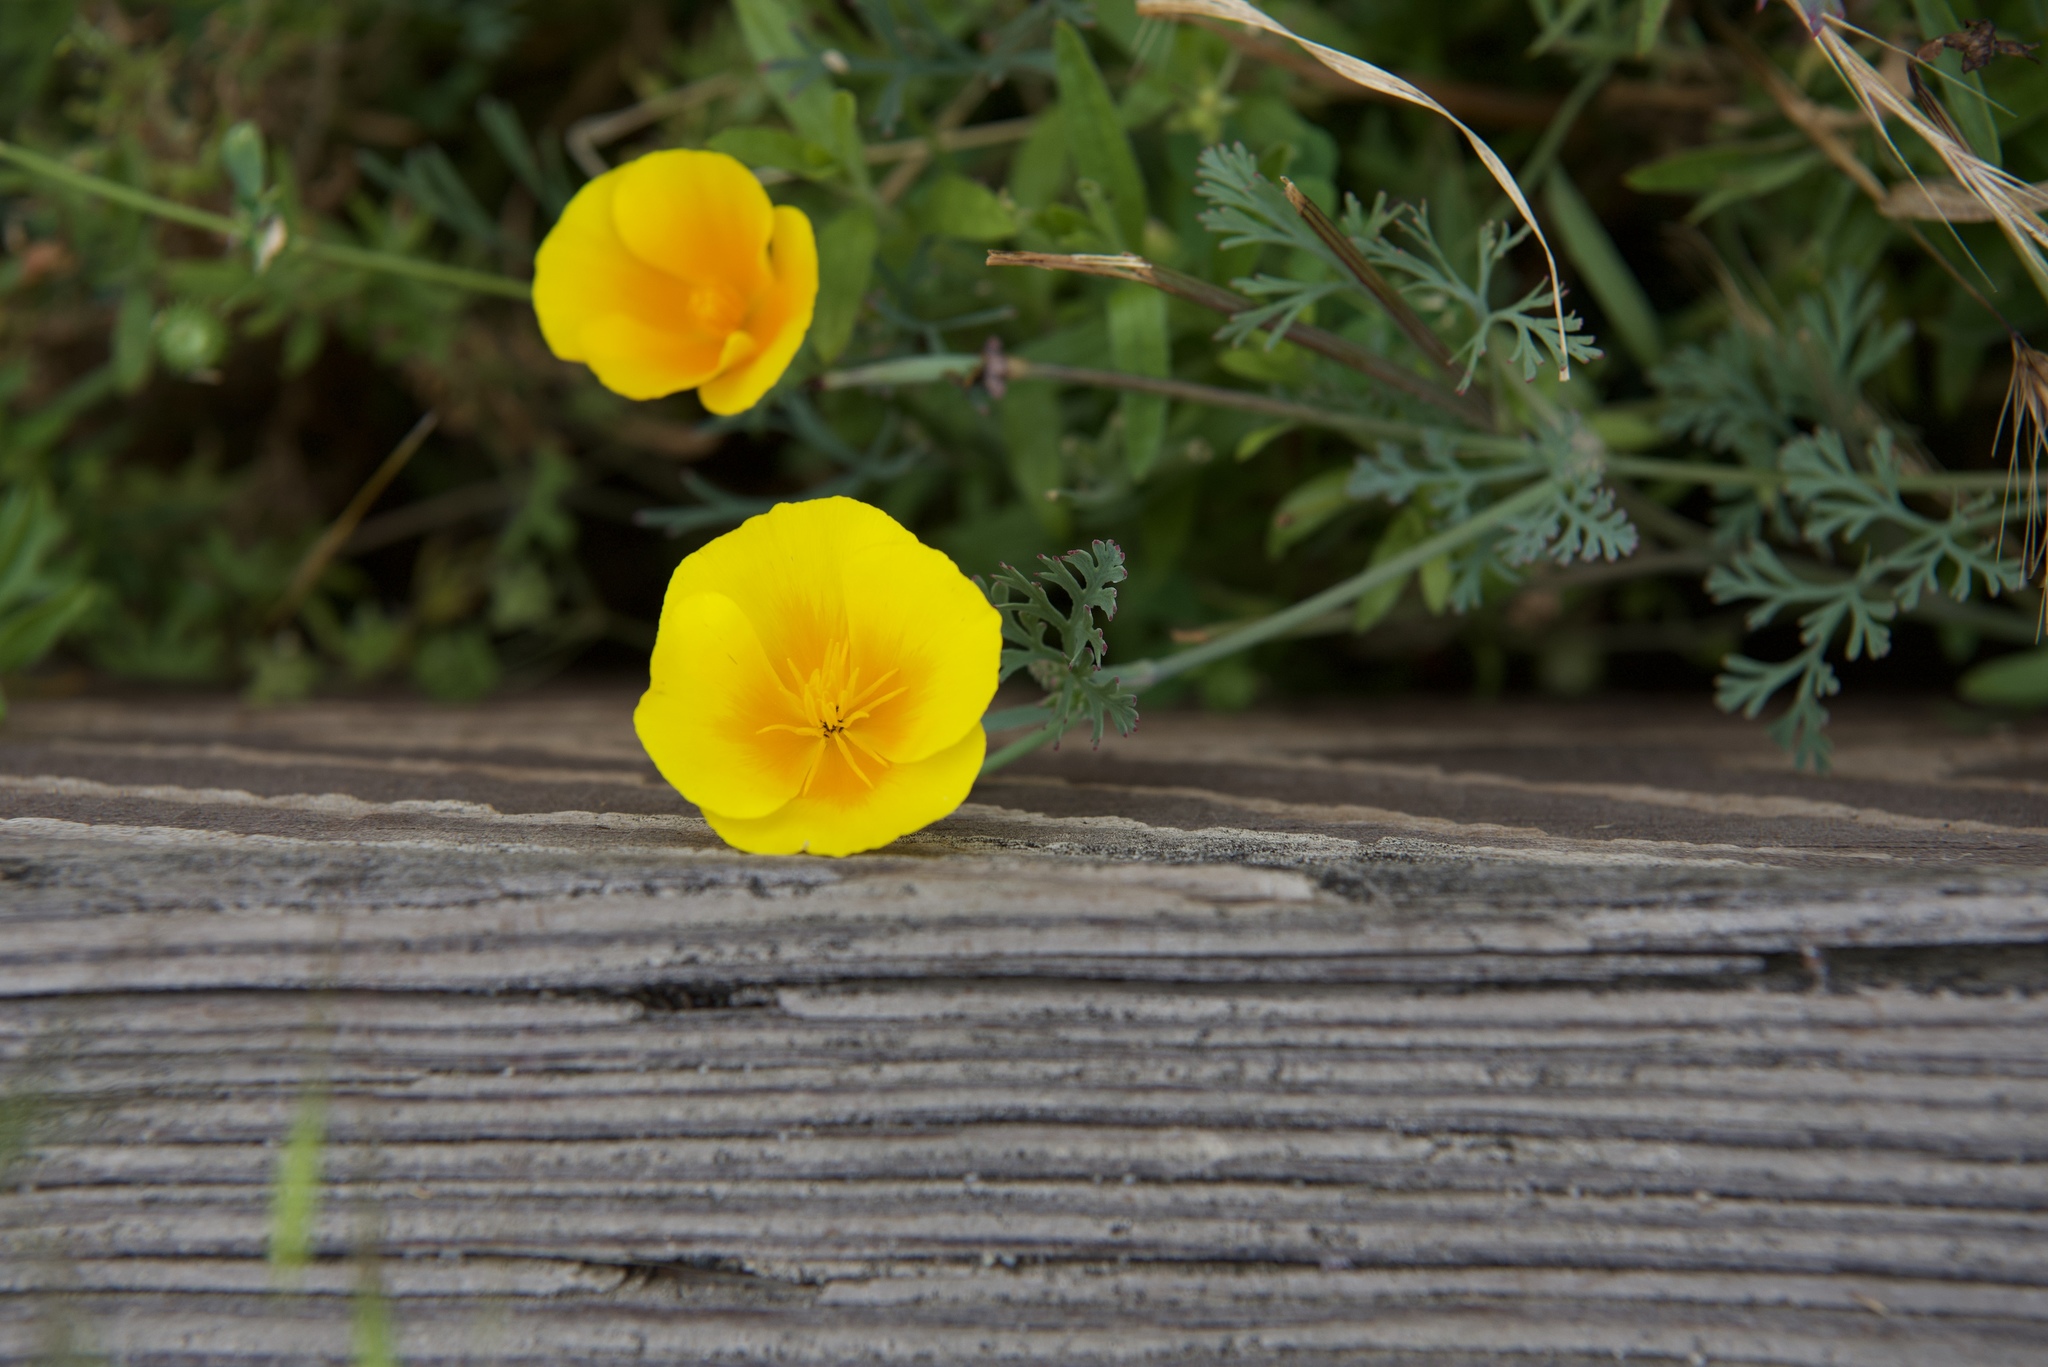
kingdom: Plantae
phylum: Tracheophyta
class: Magnoliopsida
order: Ranunculales
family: Papaveraceae
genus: Eschscholzia
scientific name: Eschscholzia californica
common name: California poppy
